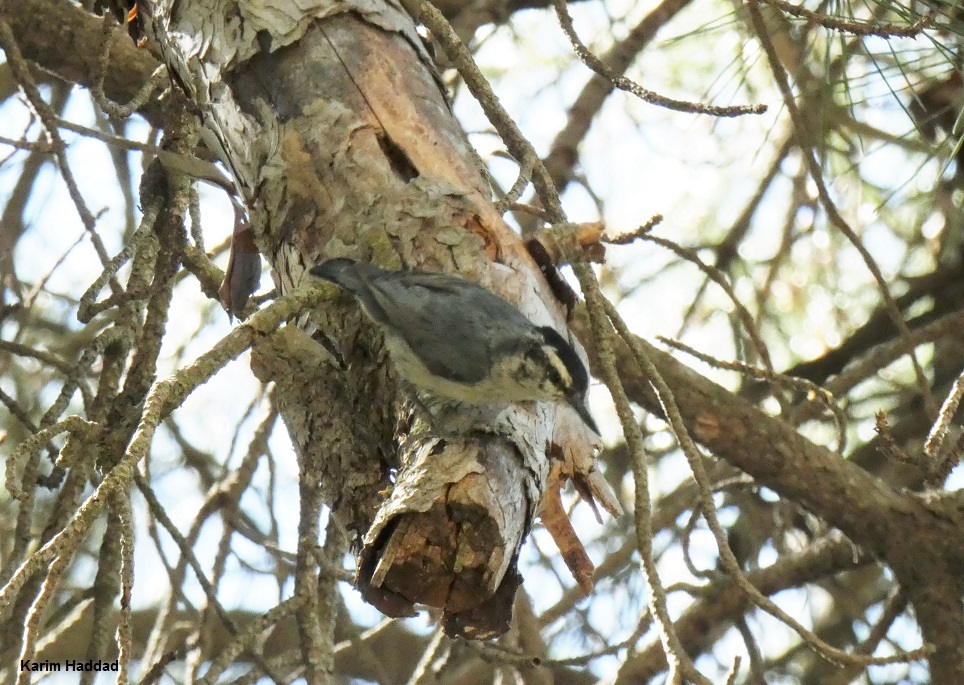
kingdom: Animalia
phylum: Chordata
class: Aves
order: Passeriformes
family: Sittidae
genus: Sitta
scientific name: Sitta whiteheadi
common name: Corsican nuthatch
